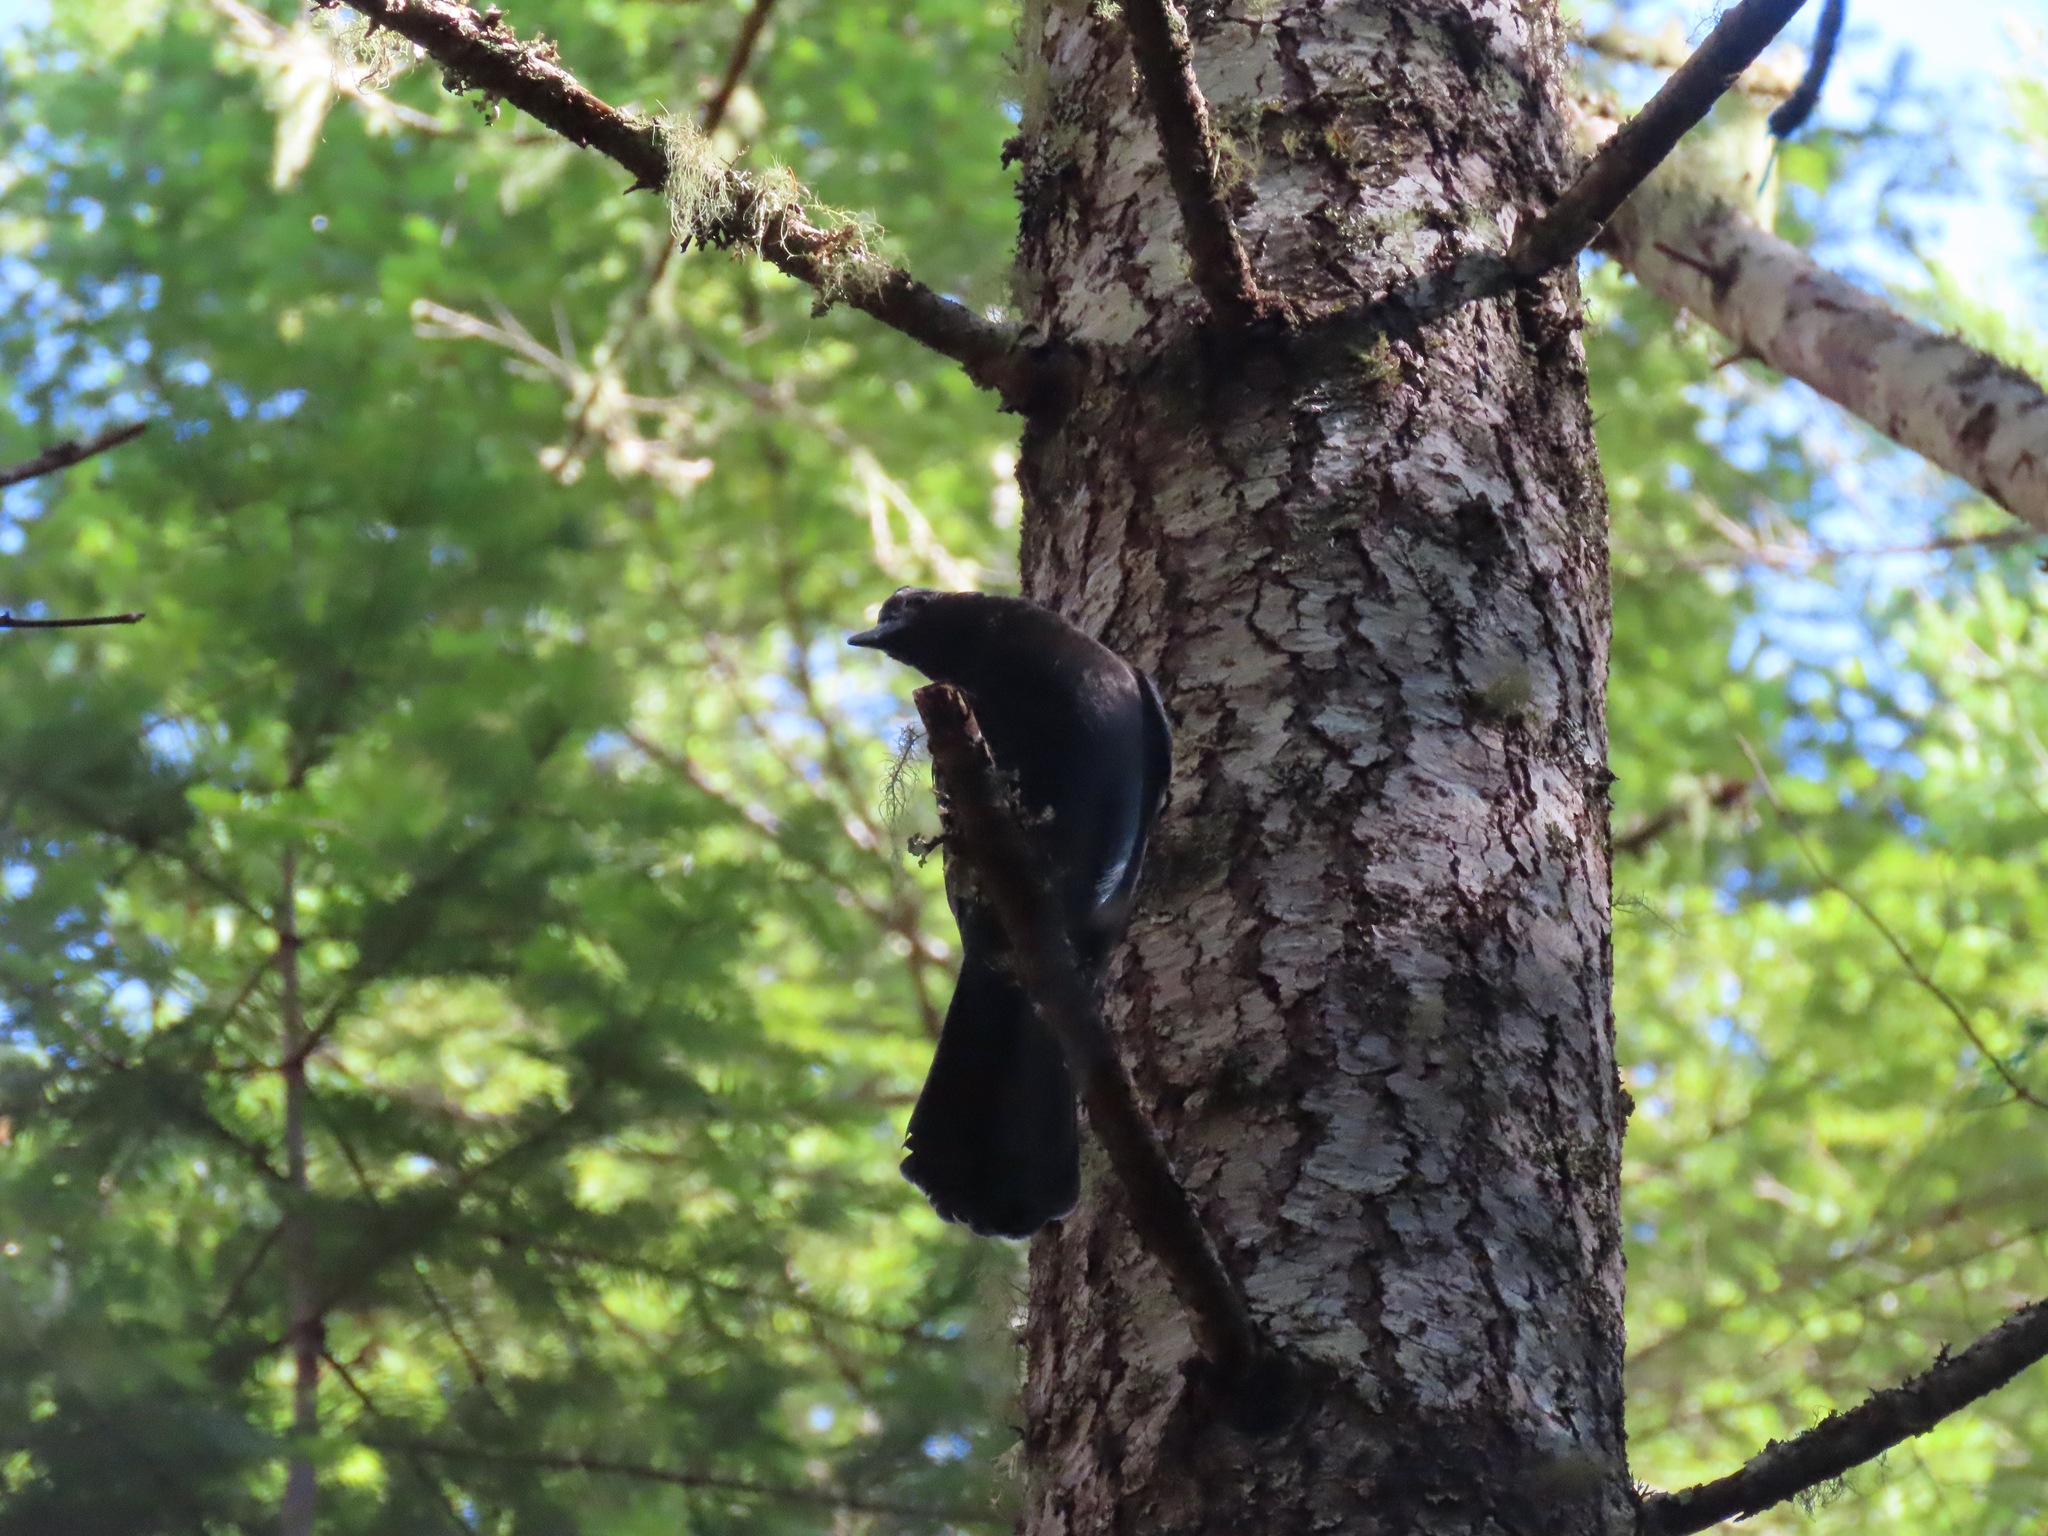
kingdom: Animalia
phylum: Chordata
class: Aves
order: Passeriformes
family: Corvidae
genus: Cyanocitta
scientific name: Cyanocitta stelleri
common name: Steller's jay
